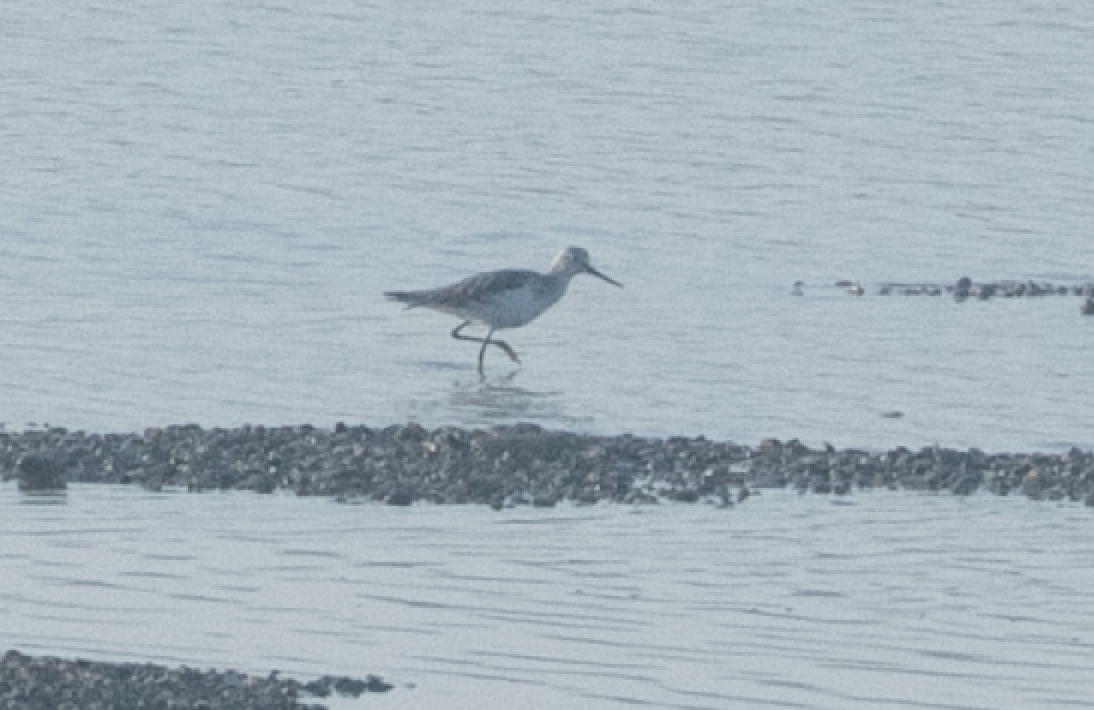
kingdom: Animalia
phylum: Chordata
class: Aves
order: Charadriiformes
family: Scolopacidae
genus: Tringa
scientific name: Tringa nebularia
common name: Common greenshank
